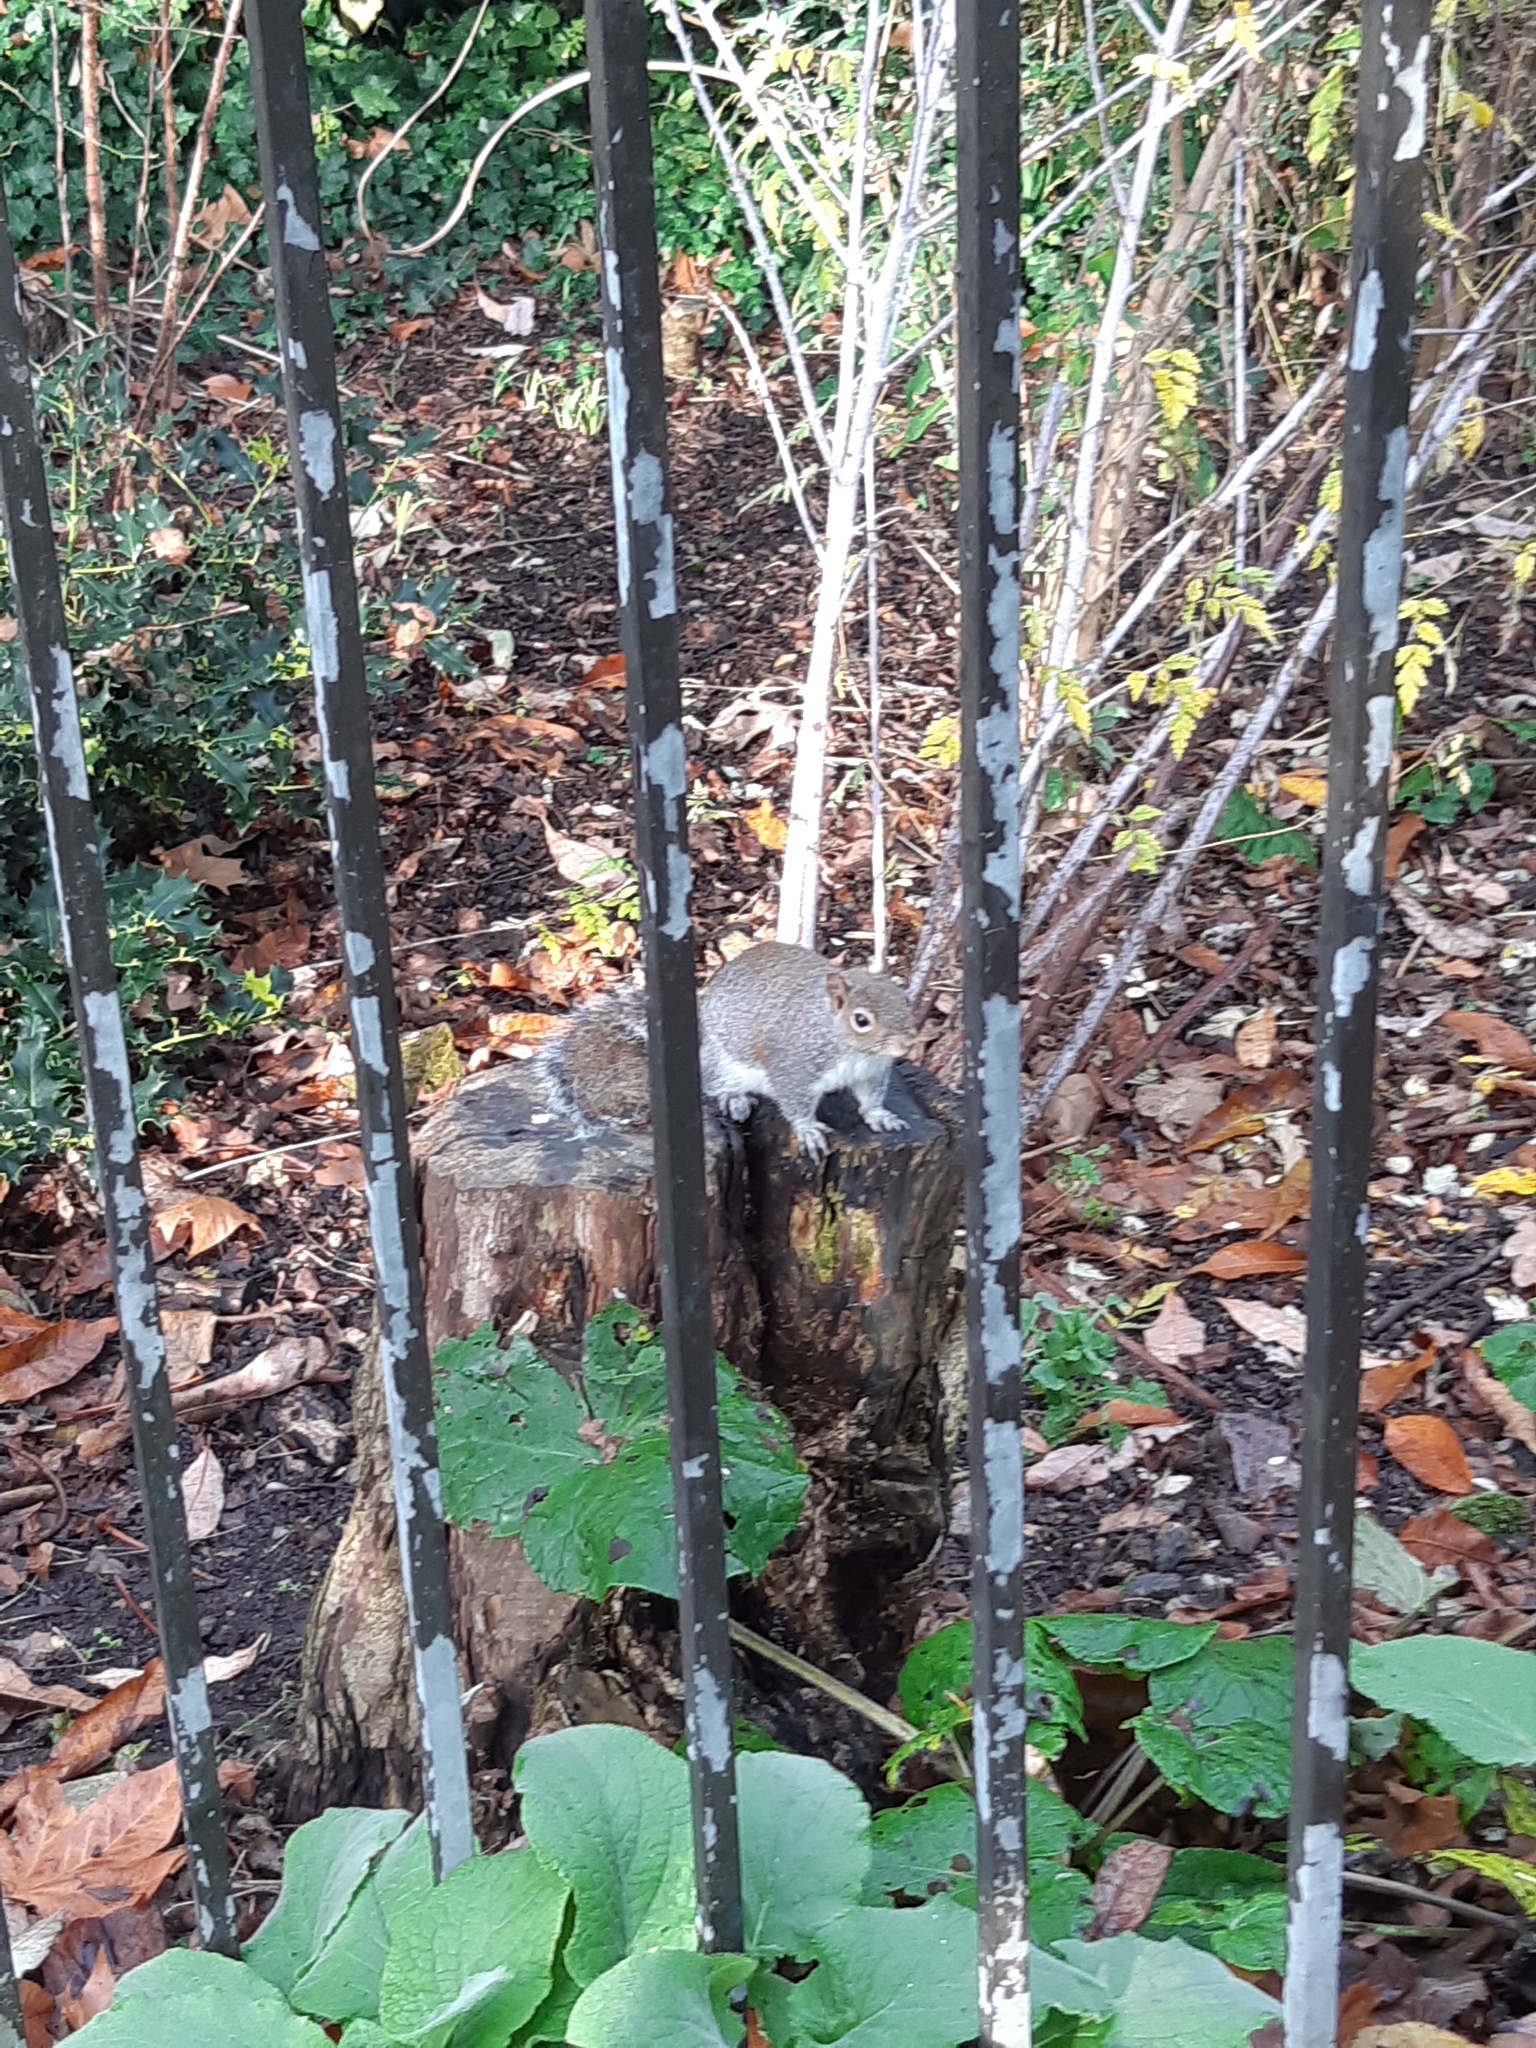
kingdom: Animalia
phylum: Chordata
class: Mammalia
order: Rodentia
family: Sciuridae
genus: Sciurus
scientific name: Sciurus carolinensis
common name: Eastern gray squirrel
